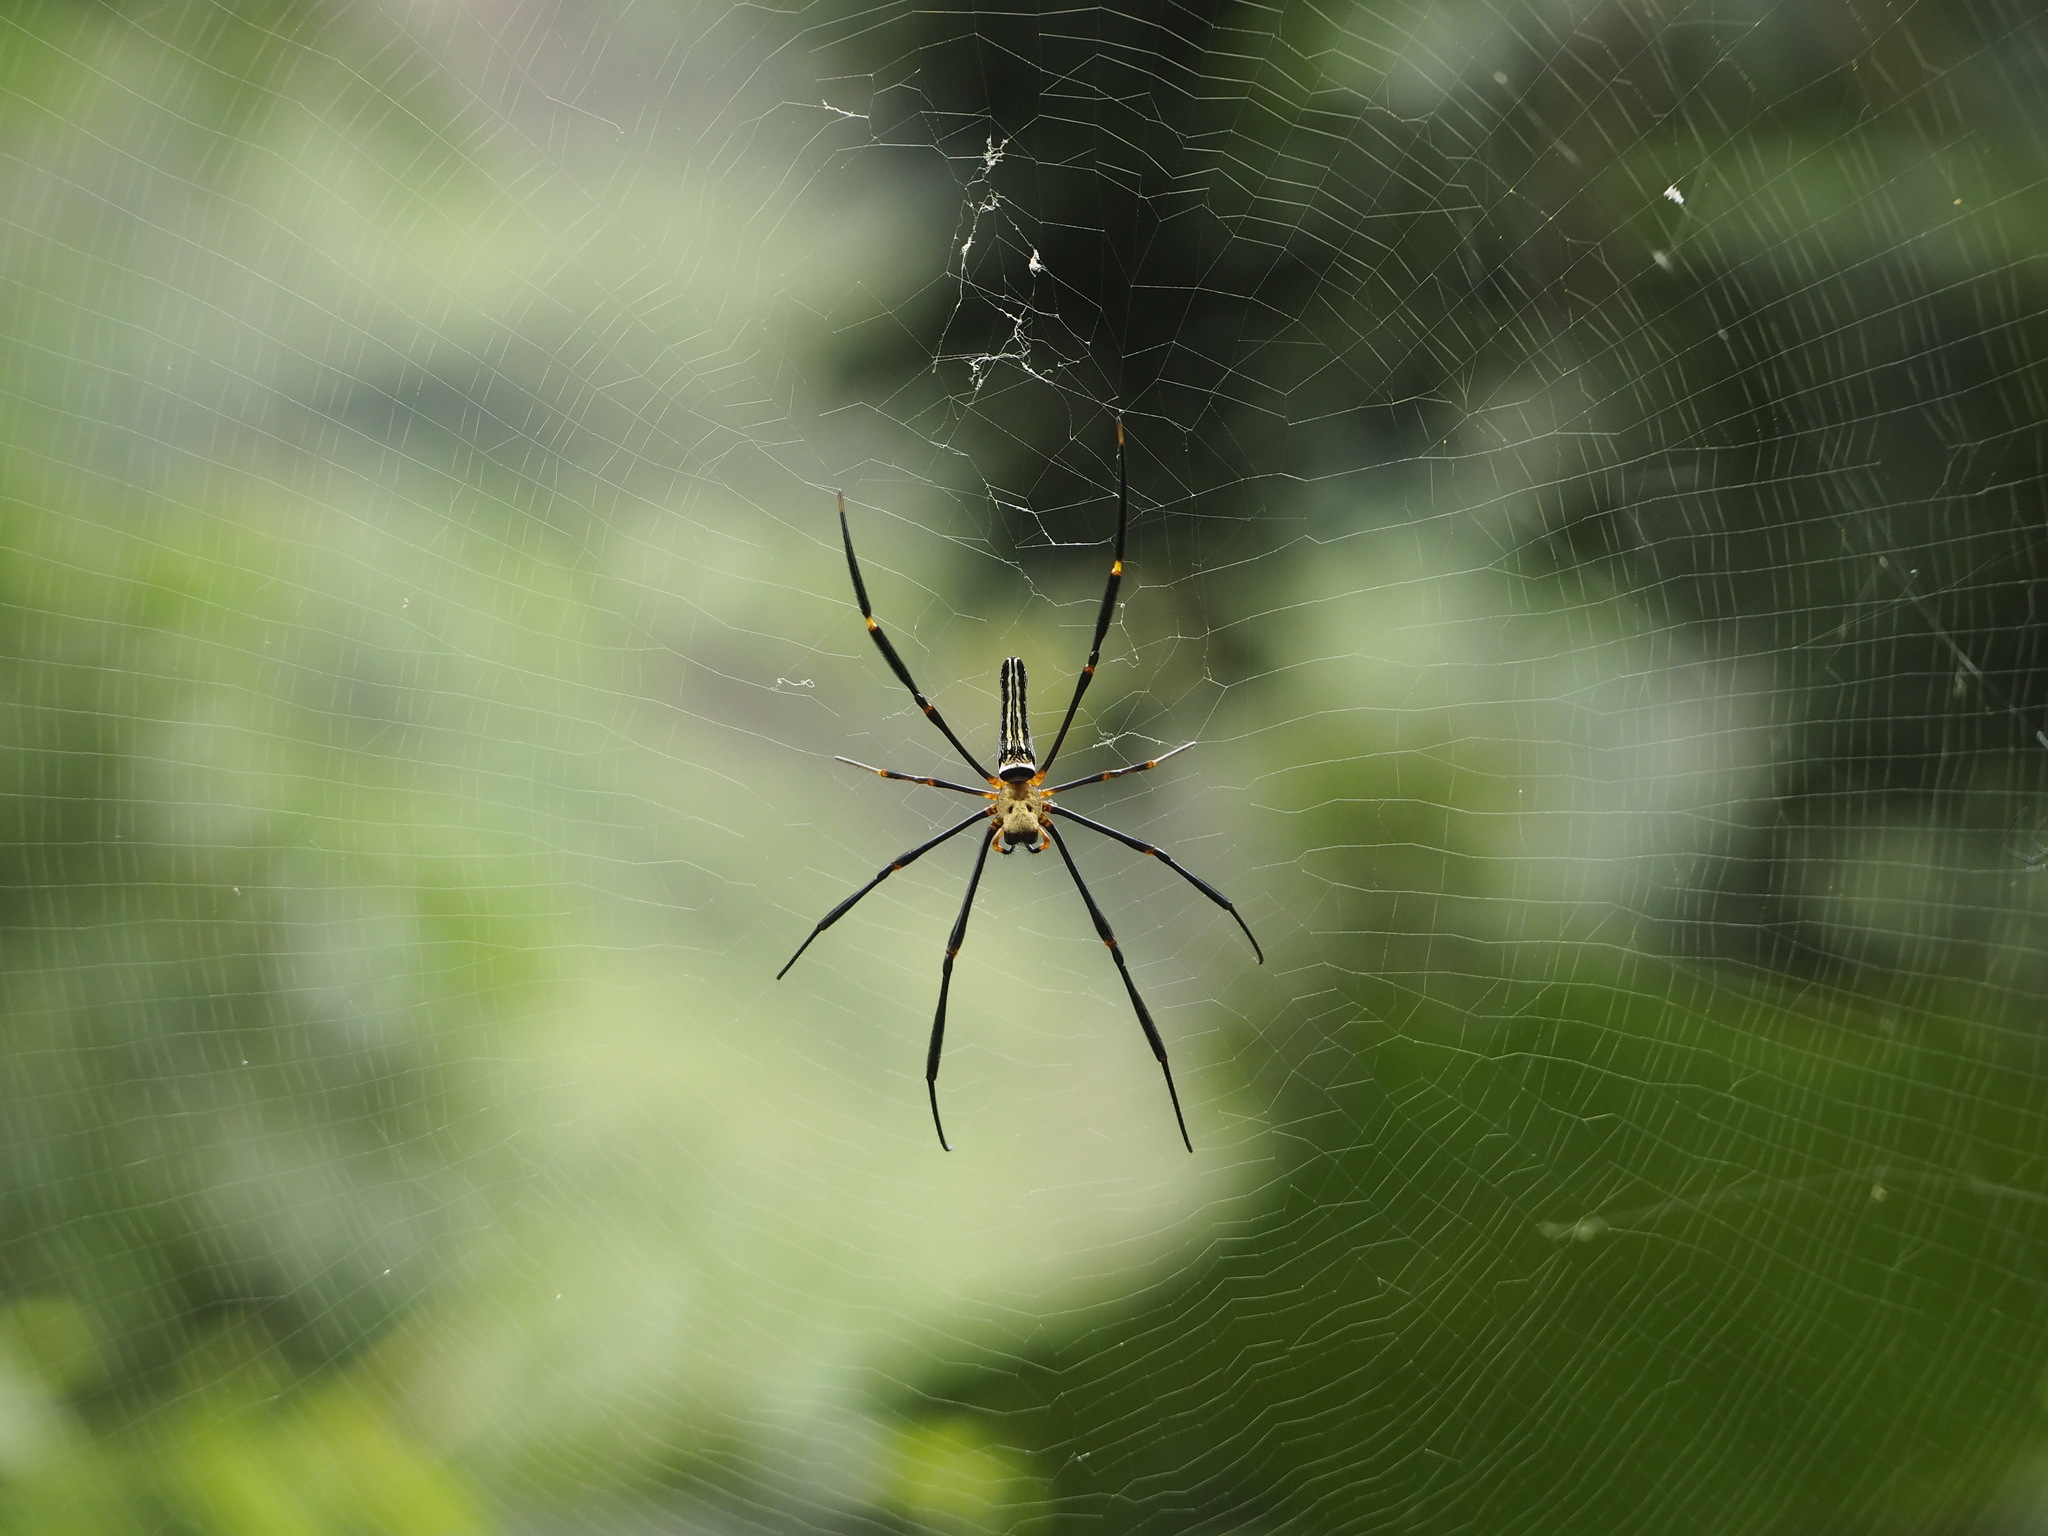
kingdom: Animalia
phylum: Arthropoda
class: Arachnida
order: Araneae
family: Araneidae
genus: Nephila
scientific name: Nephila pilipes
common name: Giant golden orb weaver
